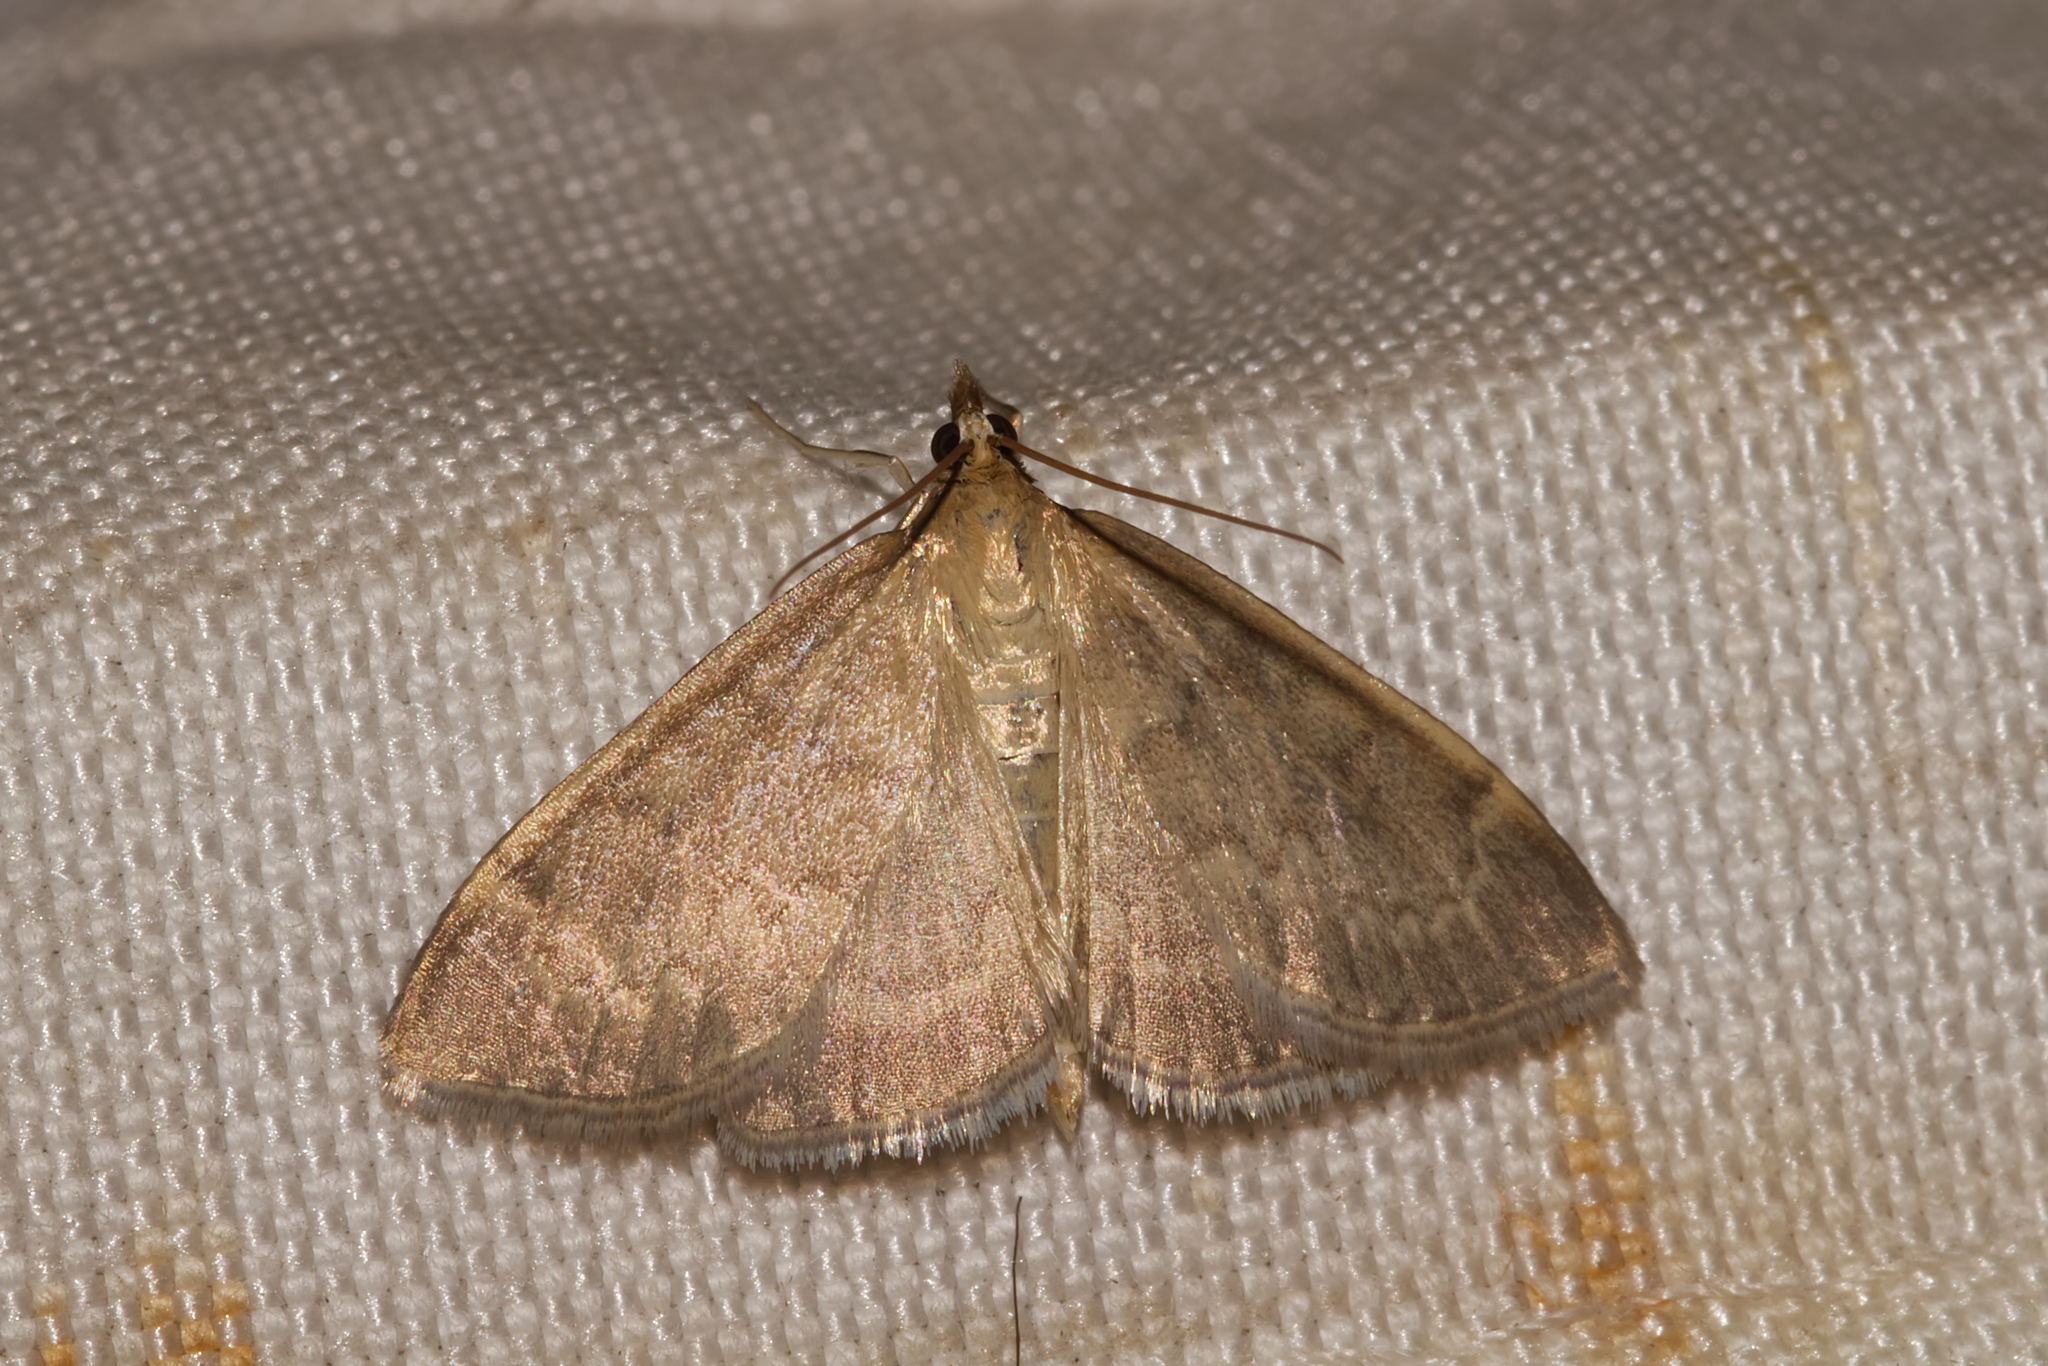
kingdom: Animalia
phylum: Arthropoda
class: Insecta
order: Lepidoptera
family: Crambidae
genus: Anania
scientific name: Anania fuscalis
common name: Cinerous pearl
